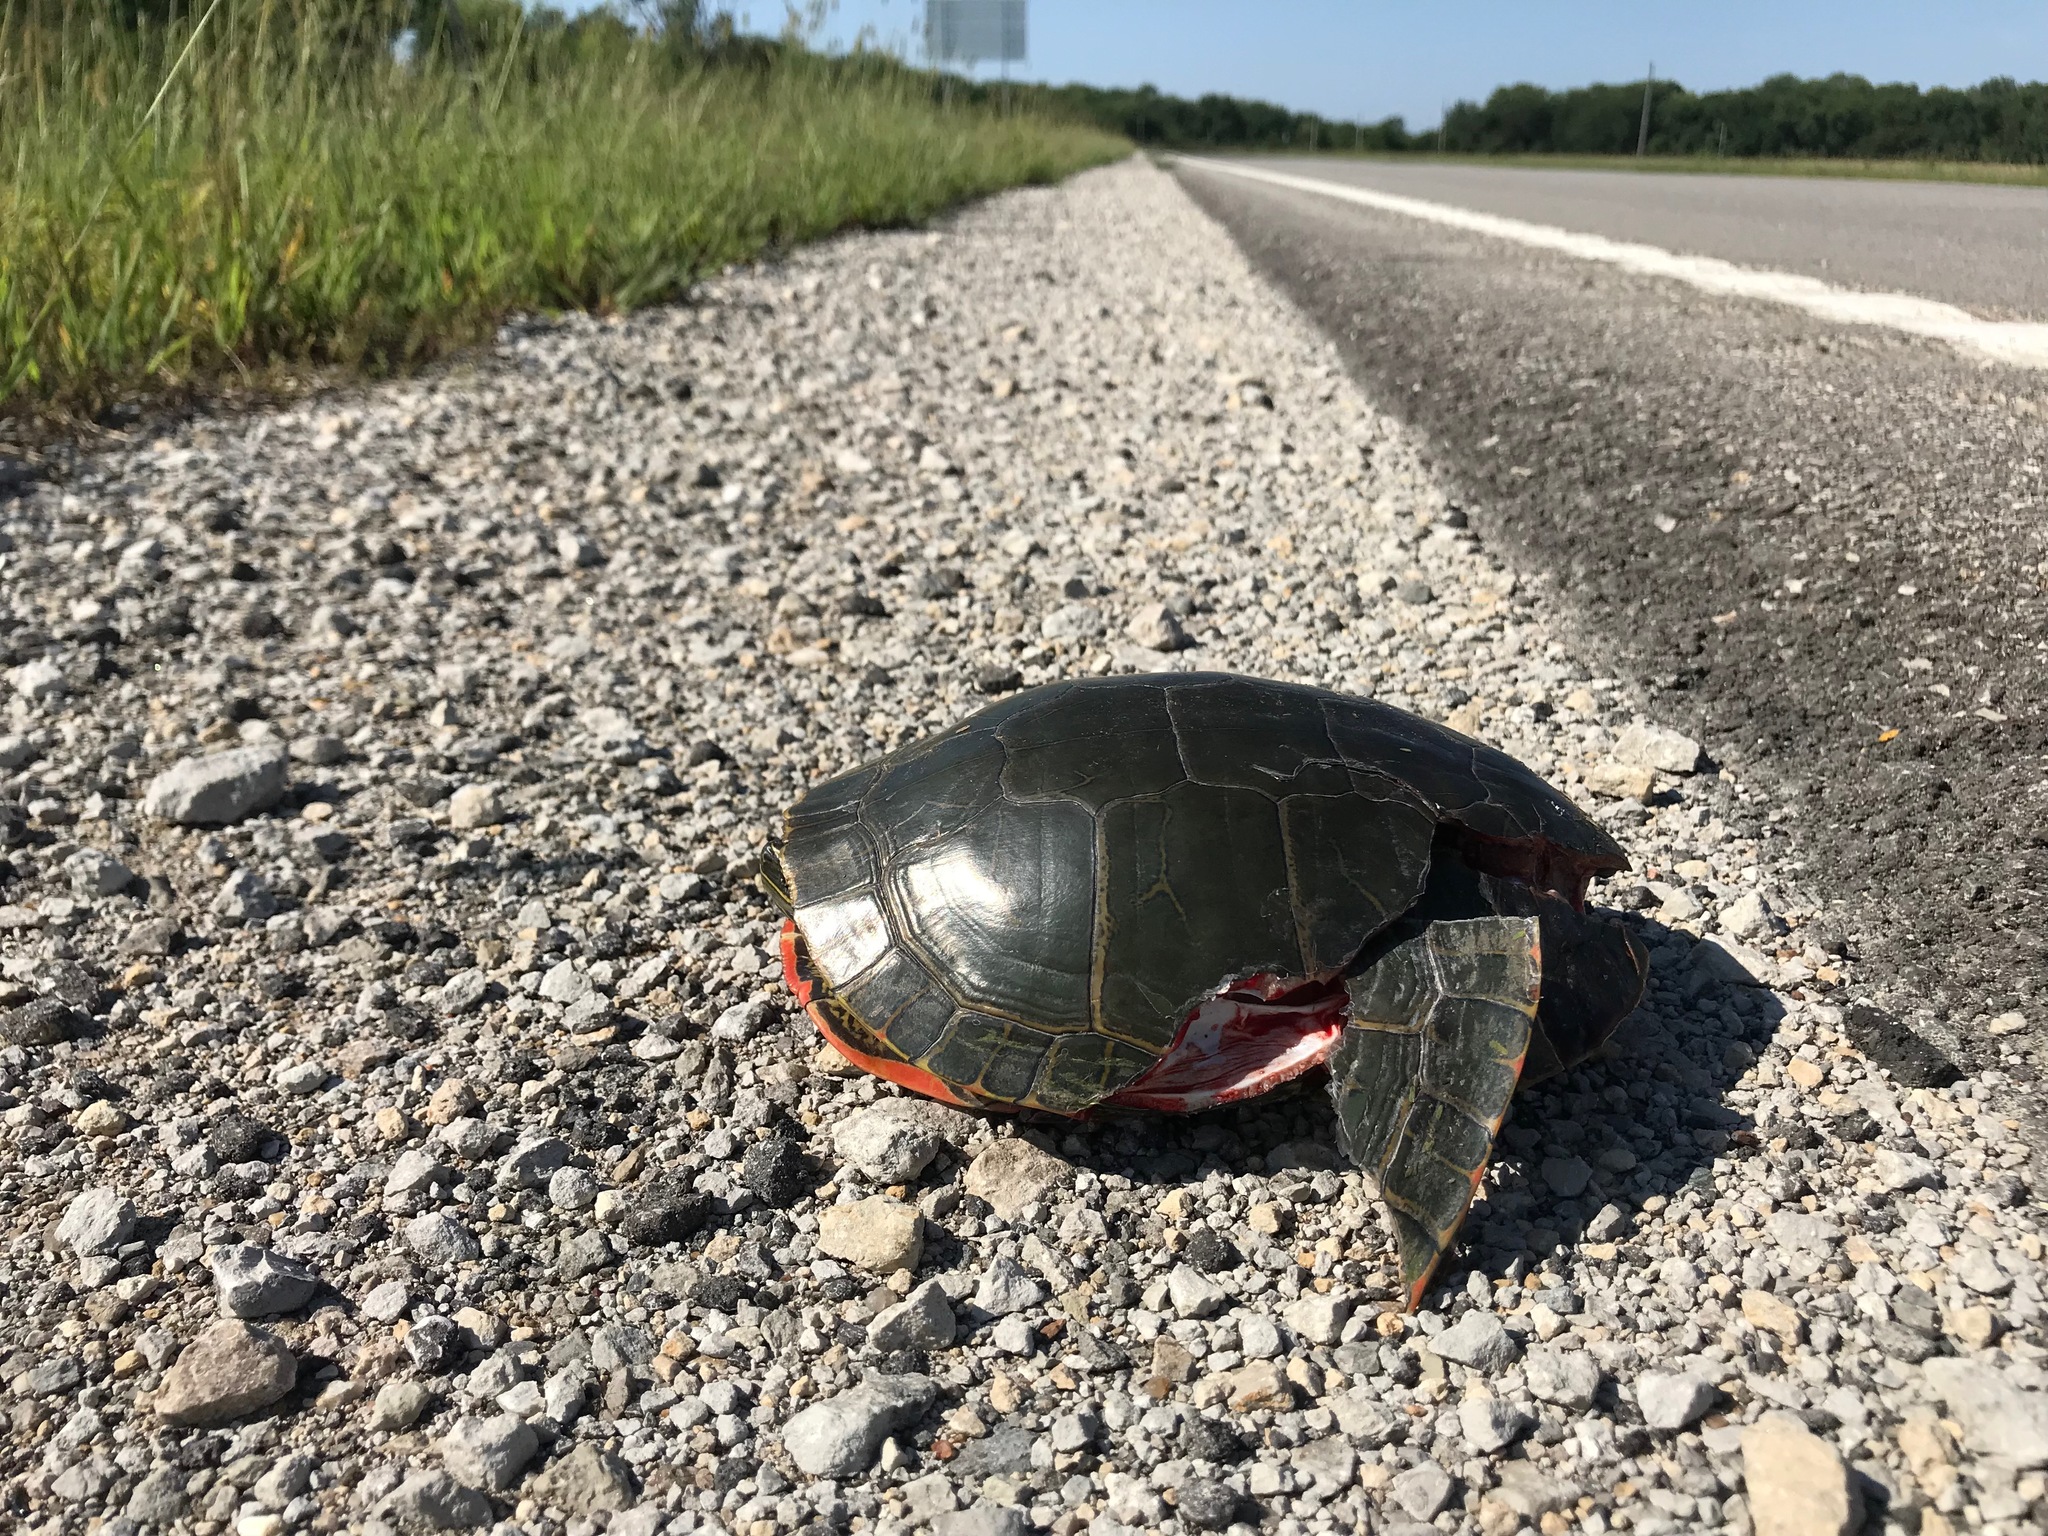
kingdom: Animalia
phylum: Chordata
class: Testudines
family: Emydidae
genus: Chrysemys
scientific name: Chrysemys picta
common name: Painted turtle
